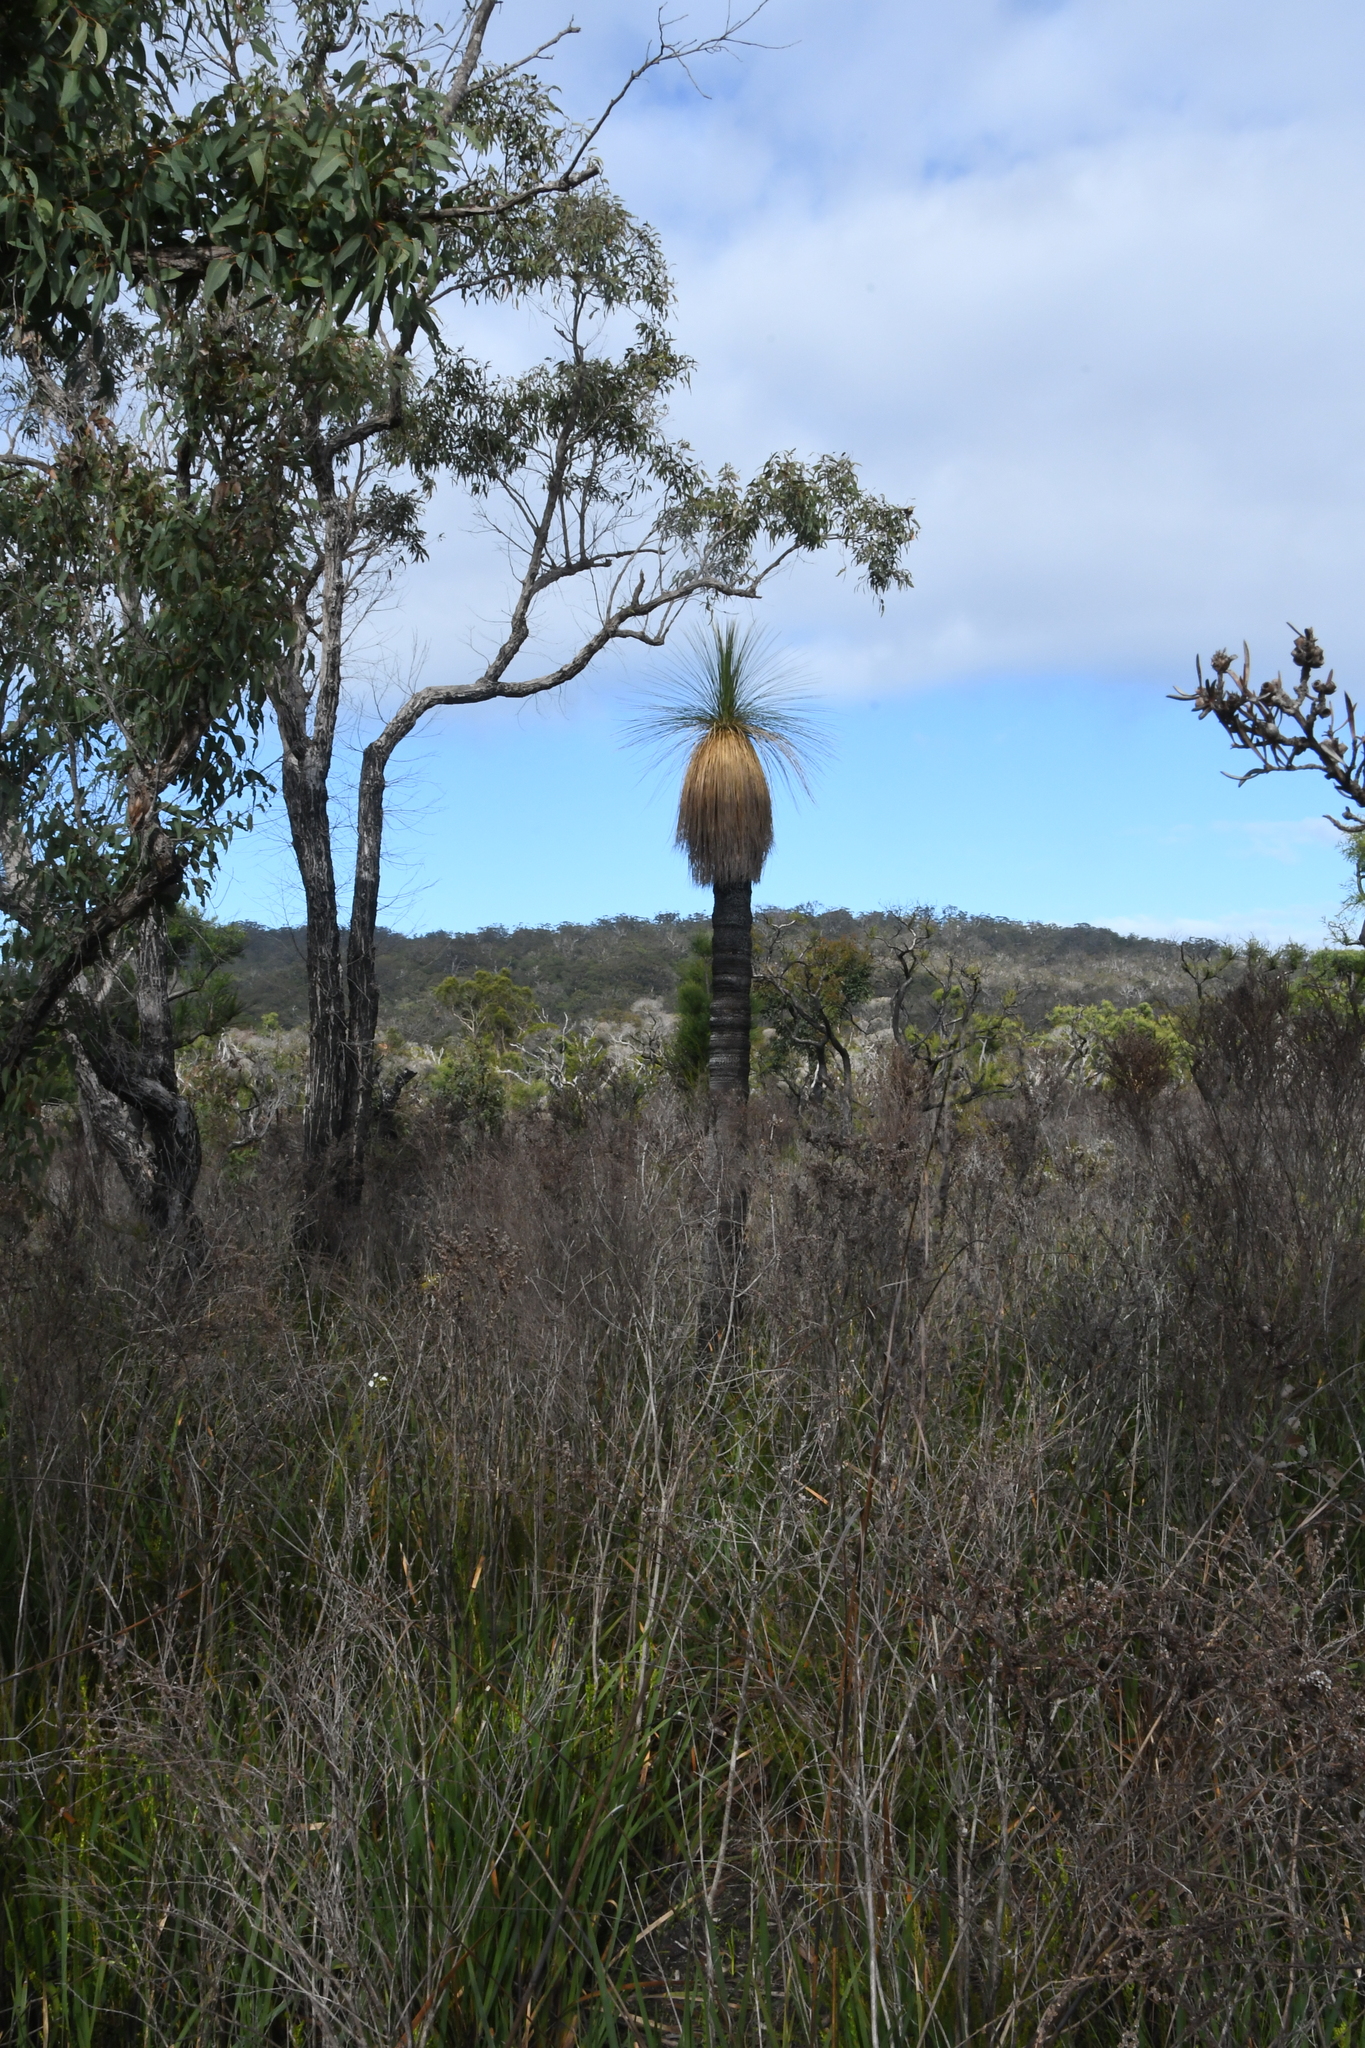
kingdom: Plantae
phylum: Tracheophyta
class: Liliopsida
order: Arecales
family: Dasypogonaceae
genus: Kingia
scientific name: Kingia australis
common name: Black gin
